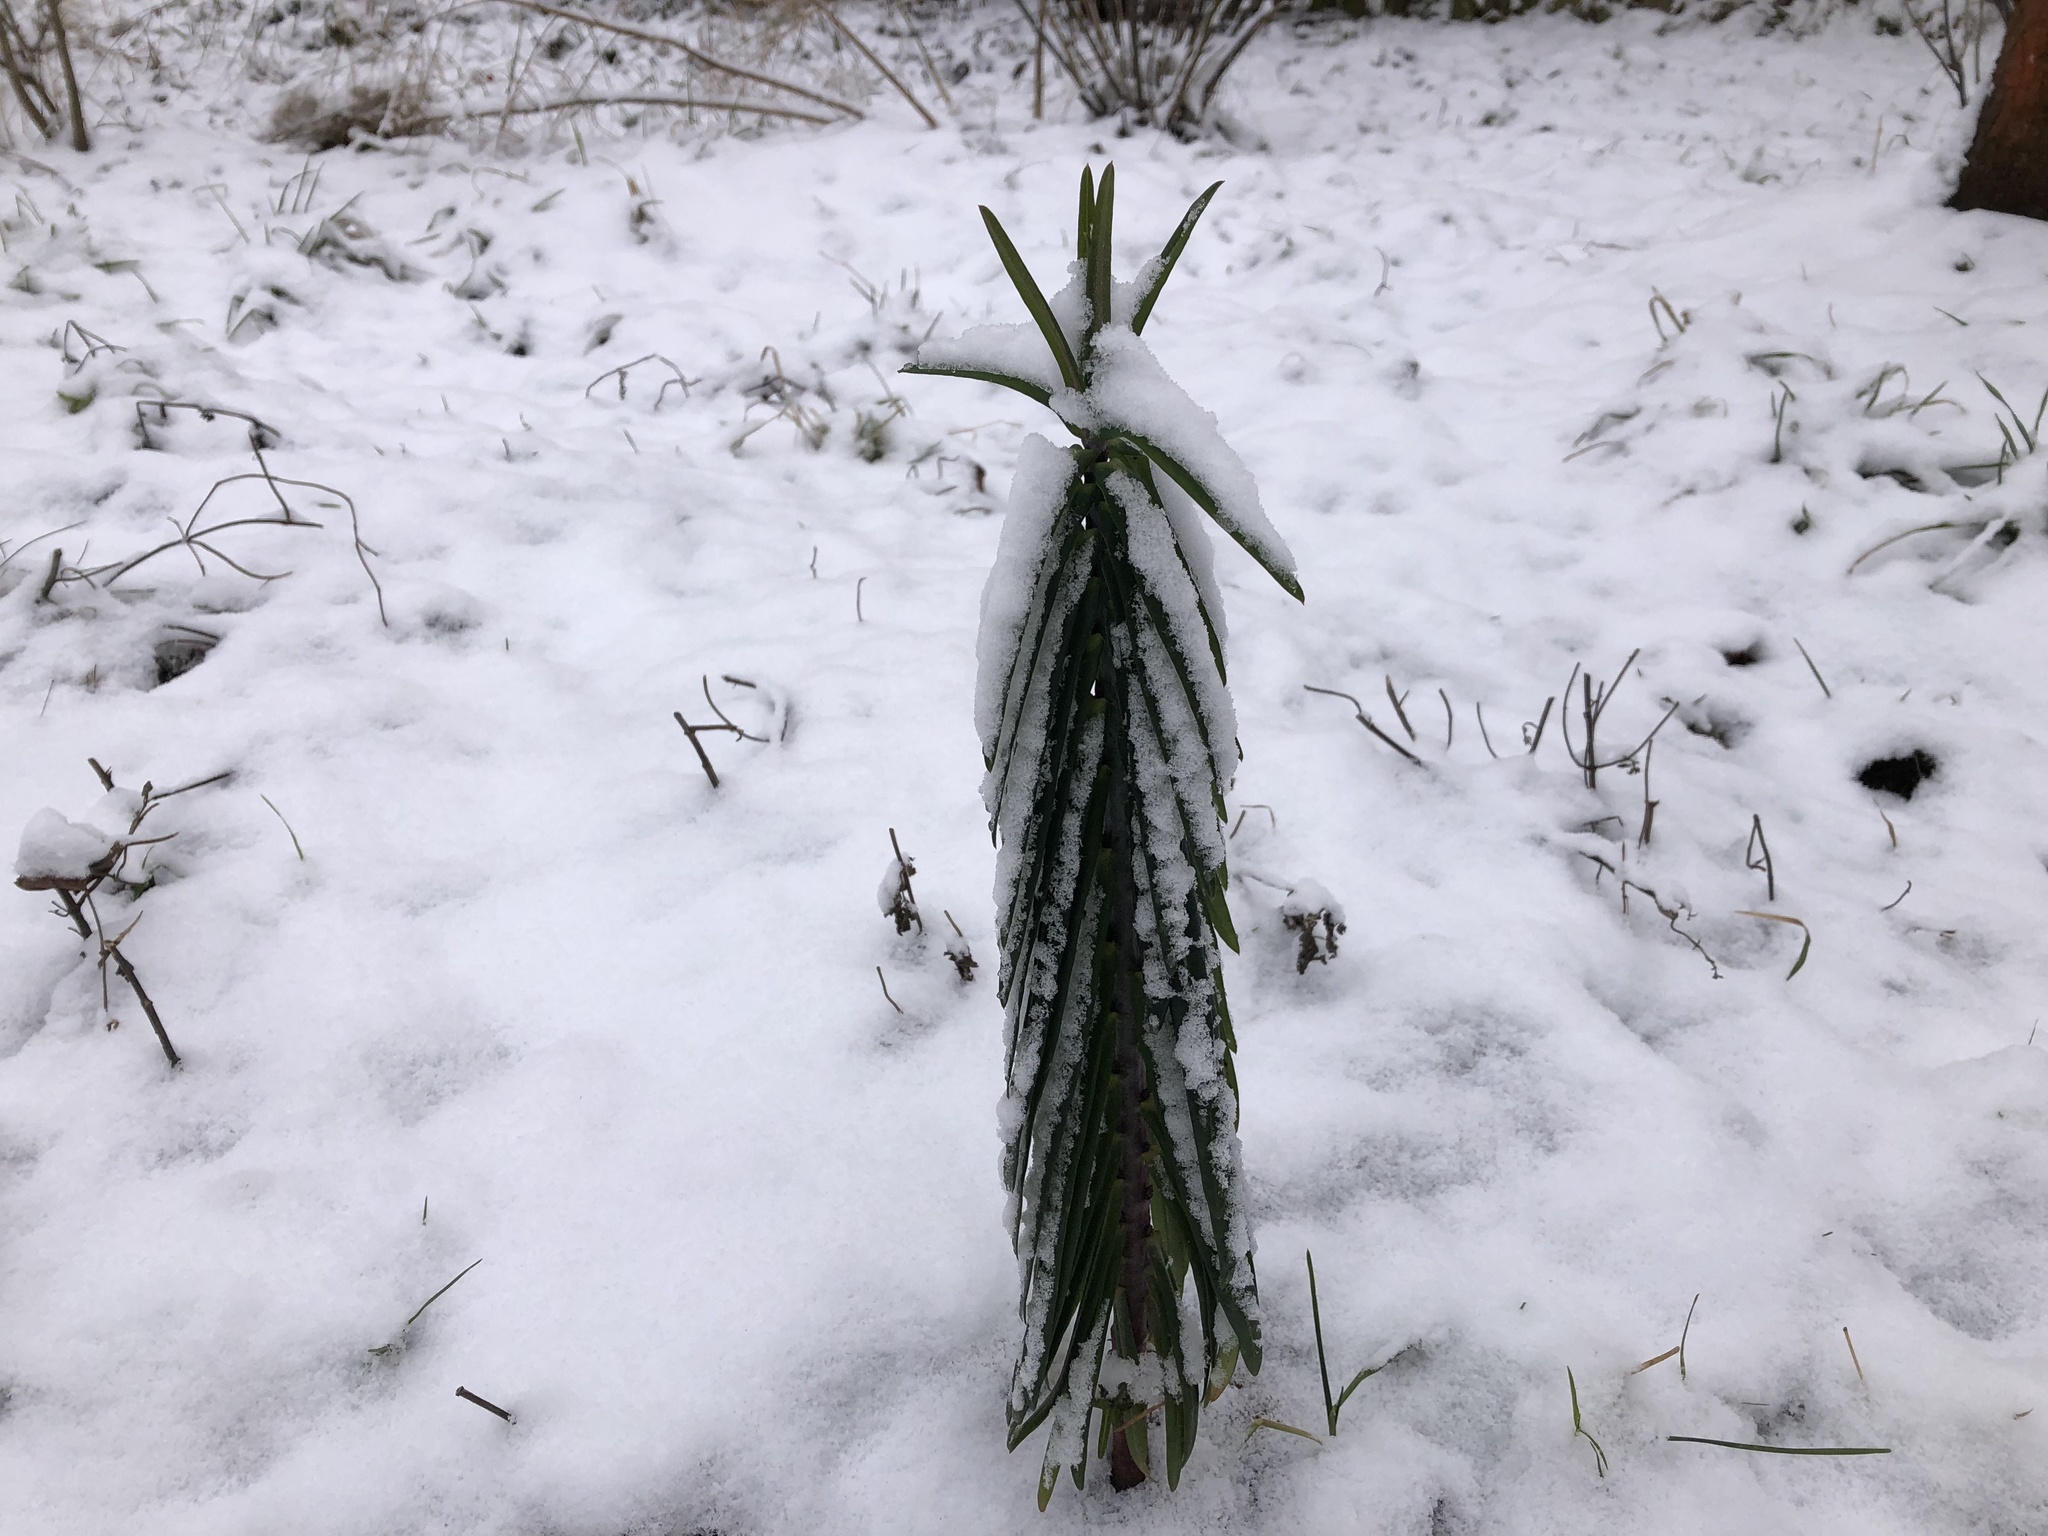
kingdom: Plantae
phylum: Tracheophyta
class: Magnoliopsida
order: Malpighiales
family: Euphorbiaceae
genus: Euphorbia
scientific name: Euphorbia lathyris
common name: Caper spurge
